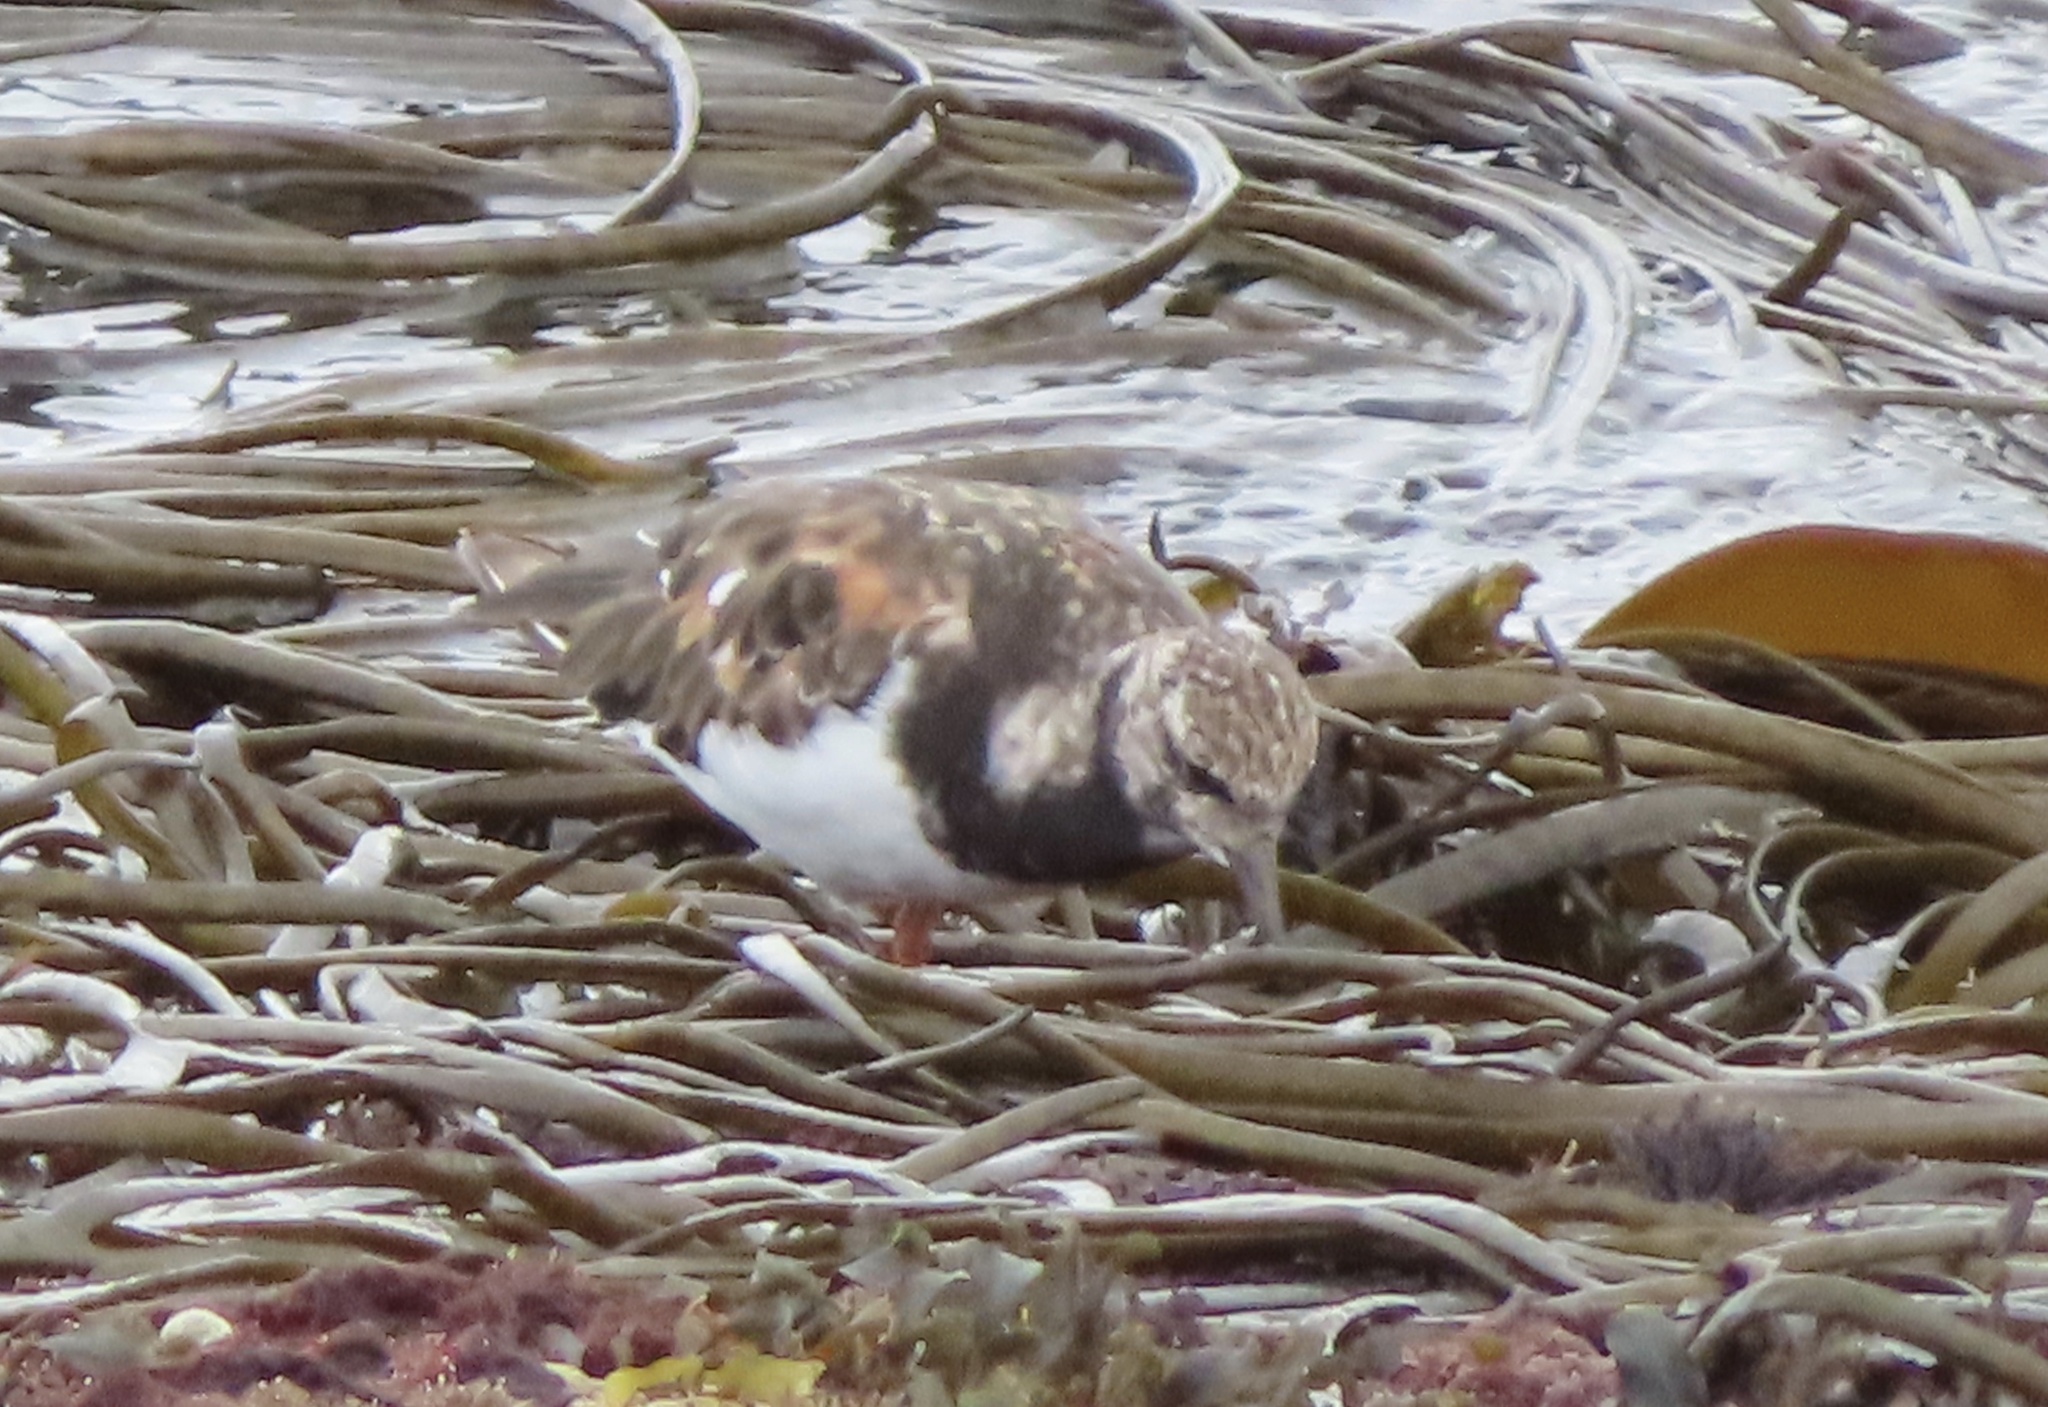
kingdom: Animalia
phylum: Chordata
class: Aves
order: Charadriiformes
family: Scolopacidae
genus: Arenaria
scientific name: Arenaria interpres
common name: Ruddy turnstone
